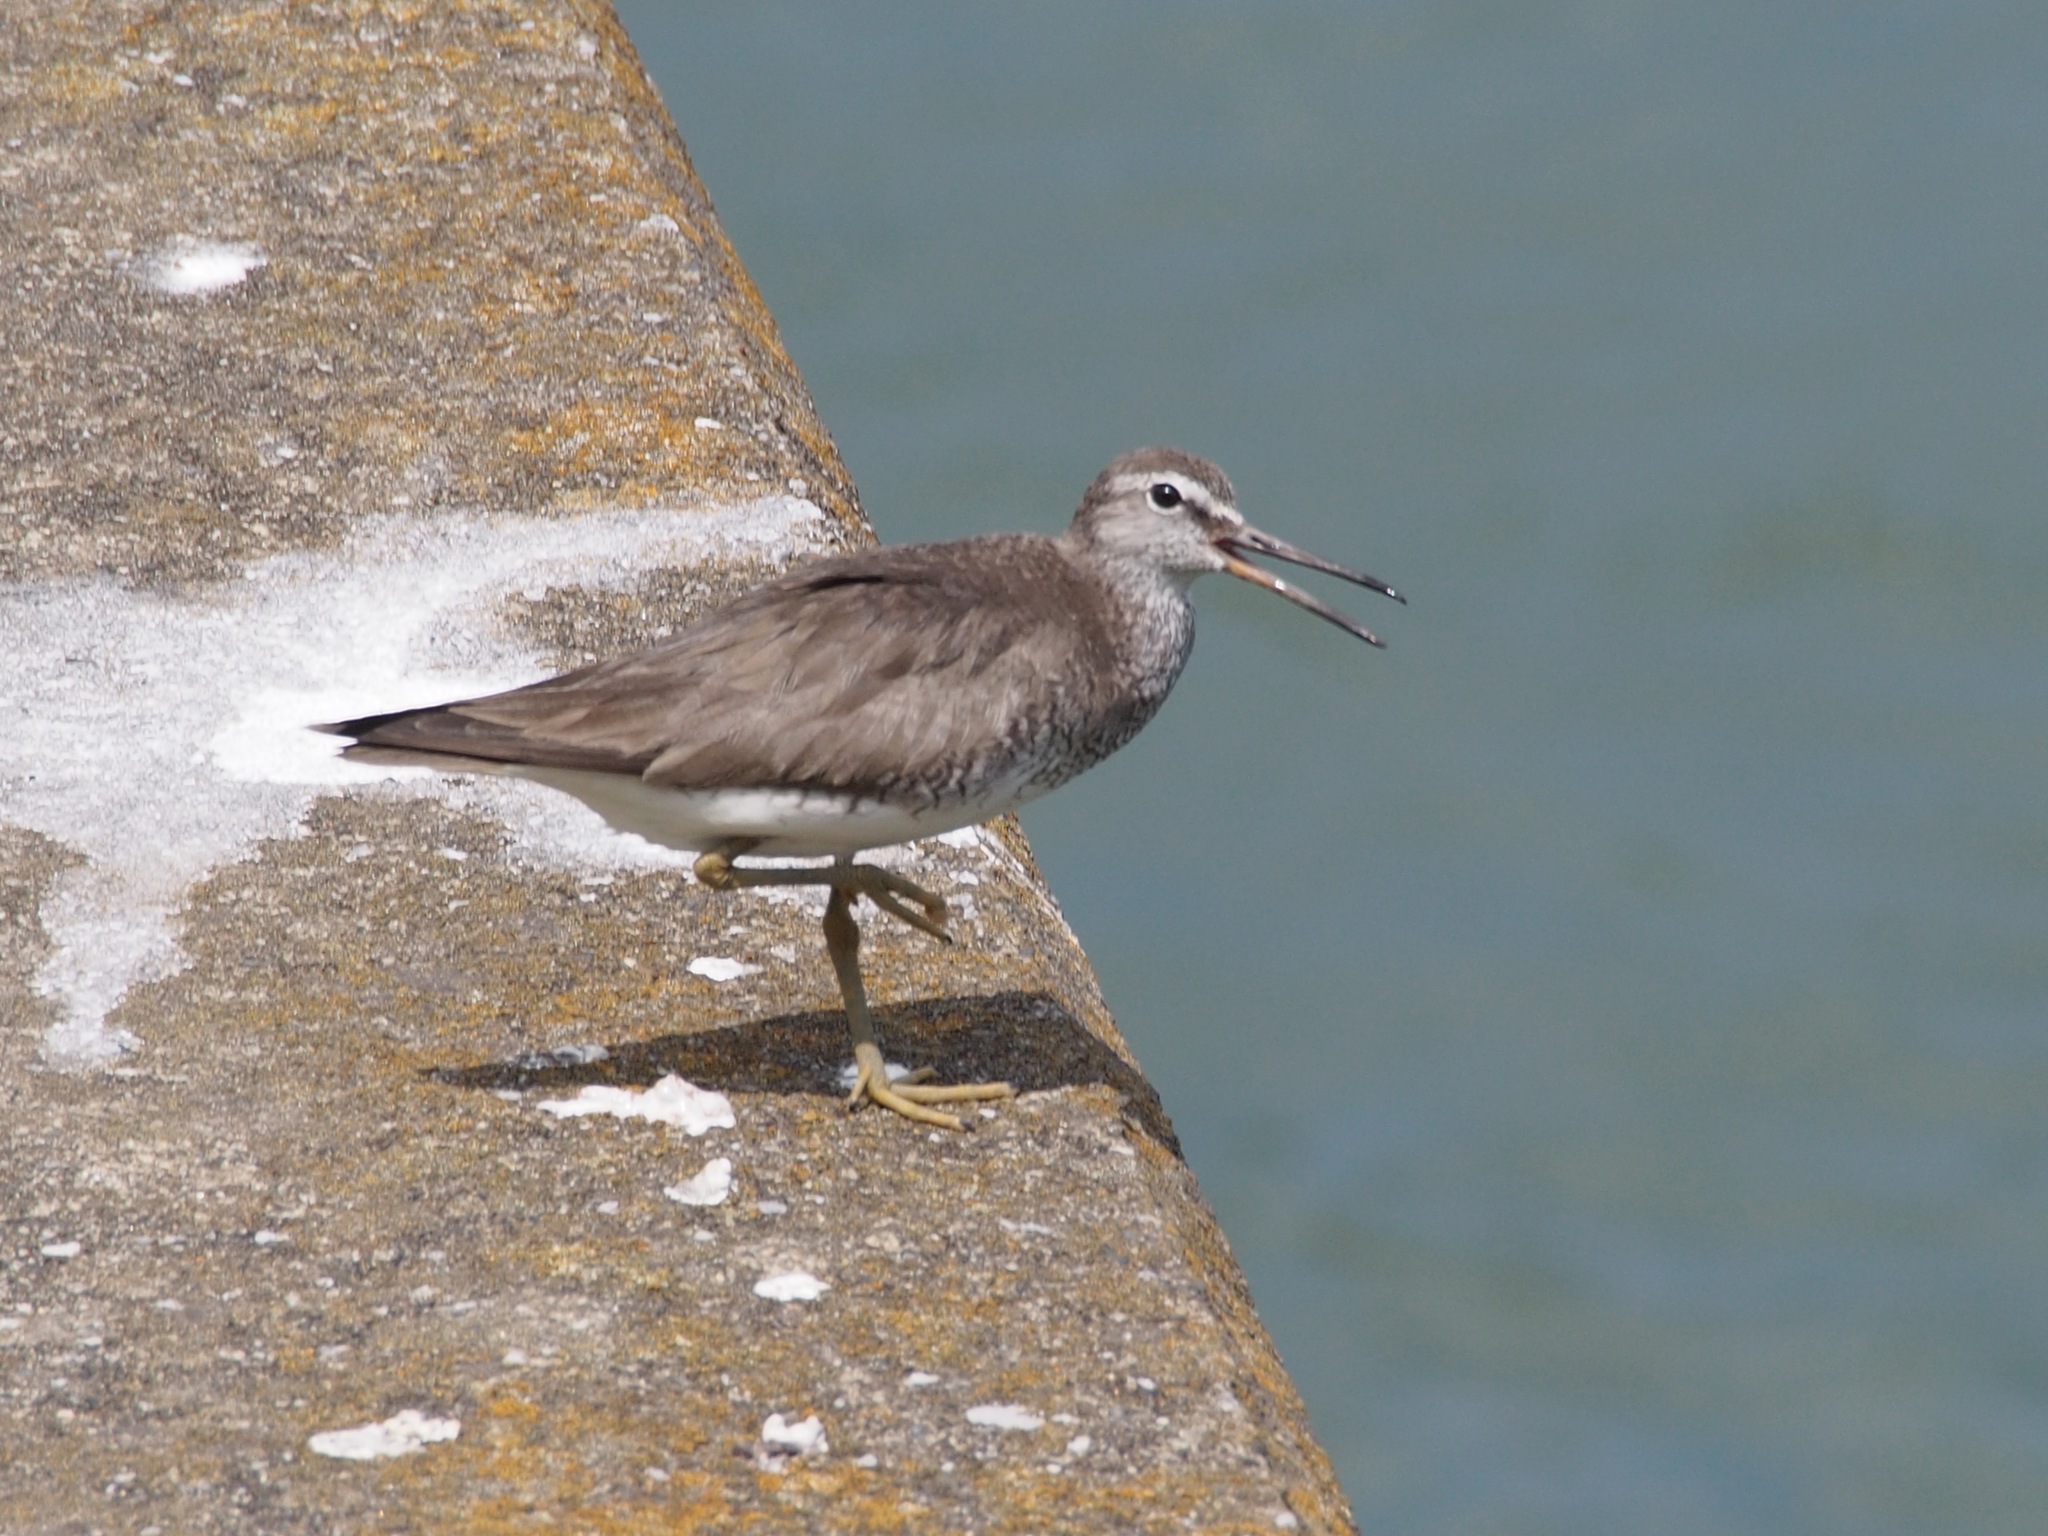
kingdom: Animalia
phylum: Chordata
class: Aves
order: Charadriiformes
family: Scolopacidae
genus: Tringa
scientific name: Tringa brevipes
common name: Grey-tailed tattler
